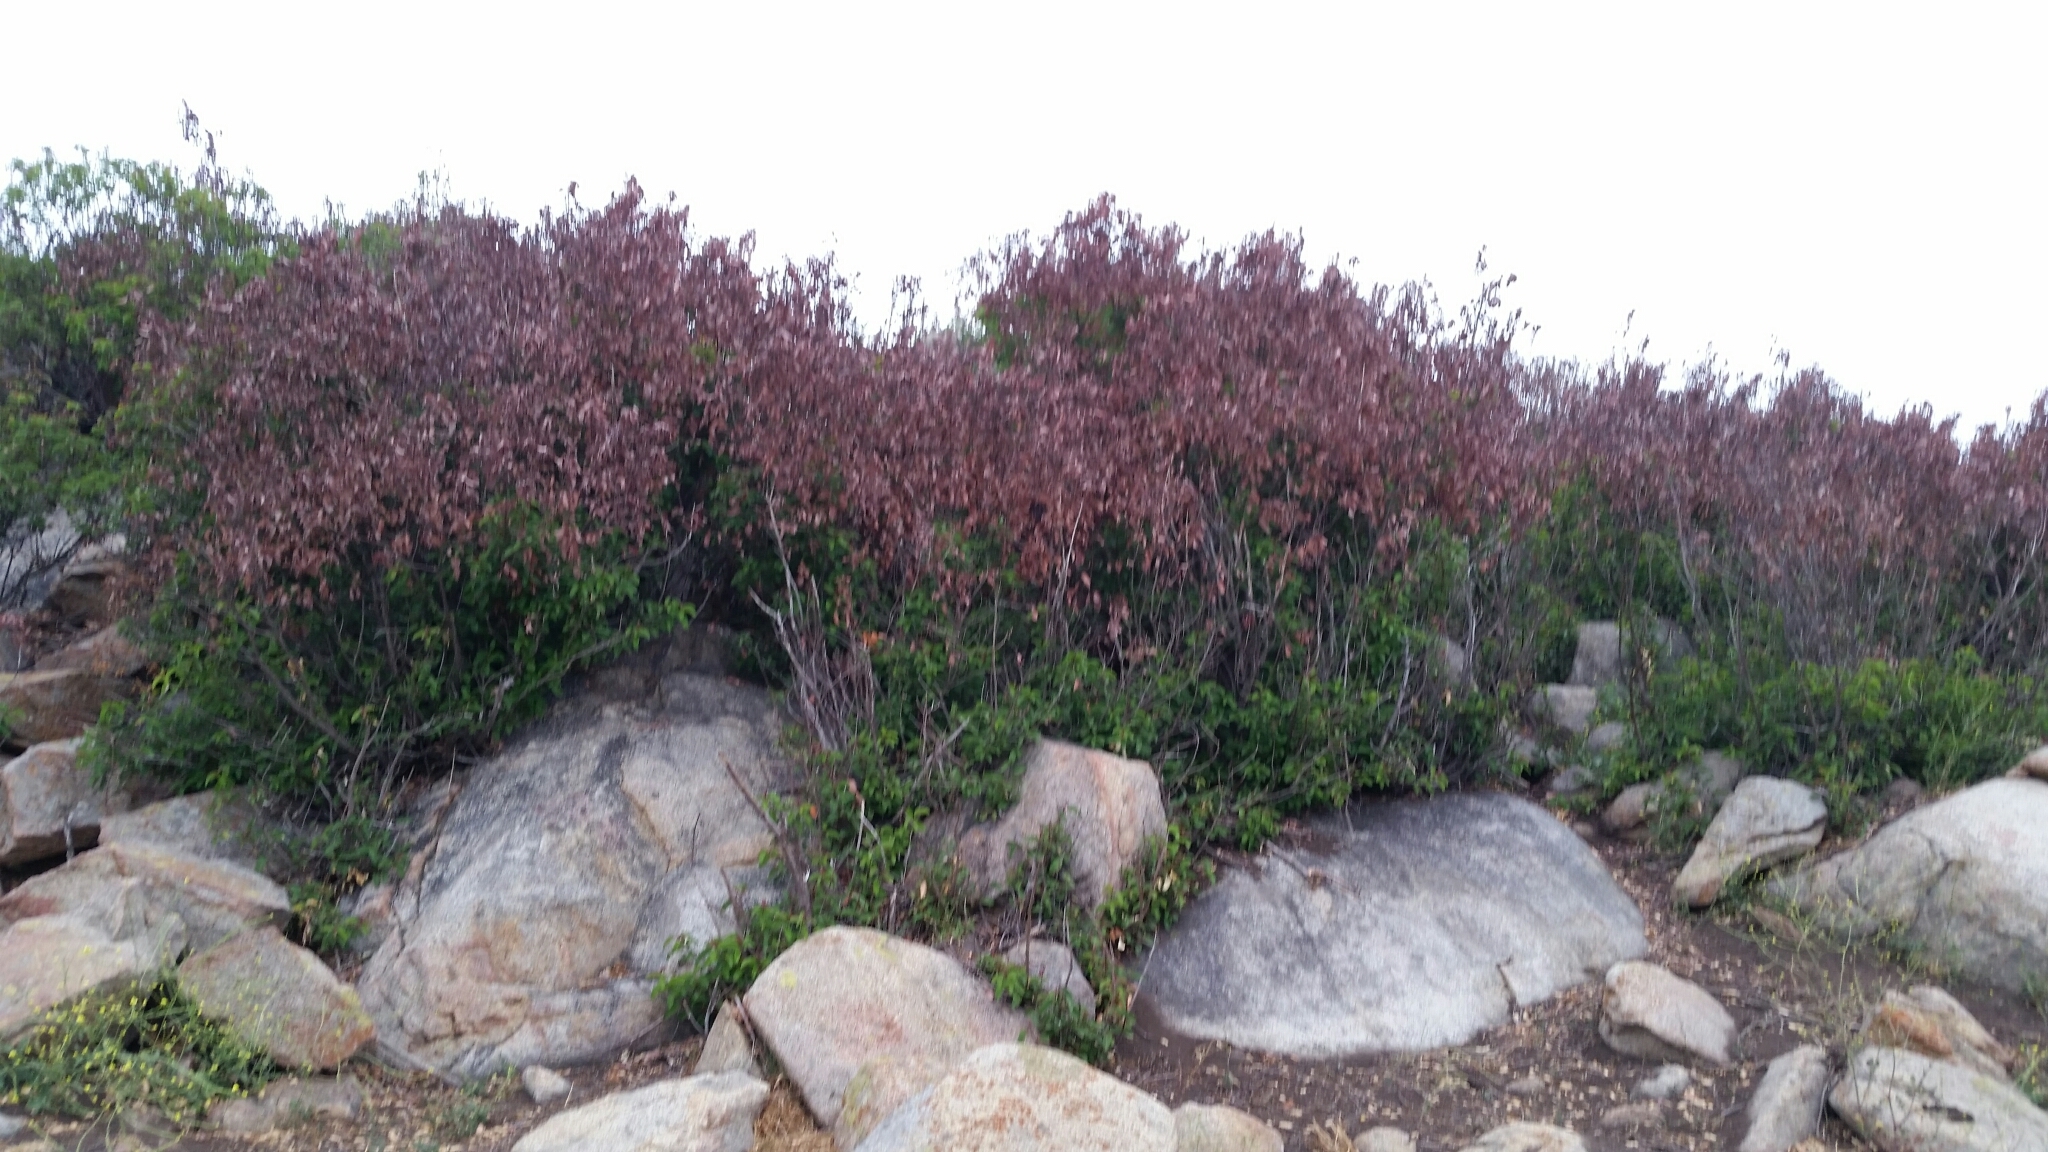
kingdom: Plantae
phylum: Tracheophyta
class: Magnoliopsida
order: Sapindales
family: Anacardiaceae
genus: Malosma
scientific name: Malosma laurina
